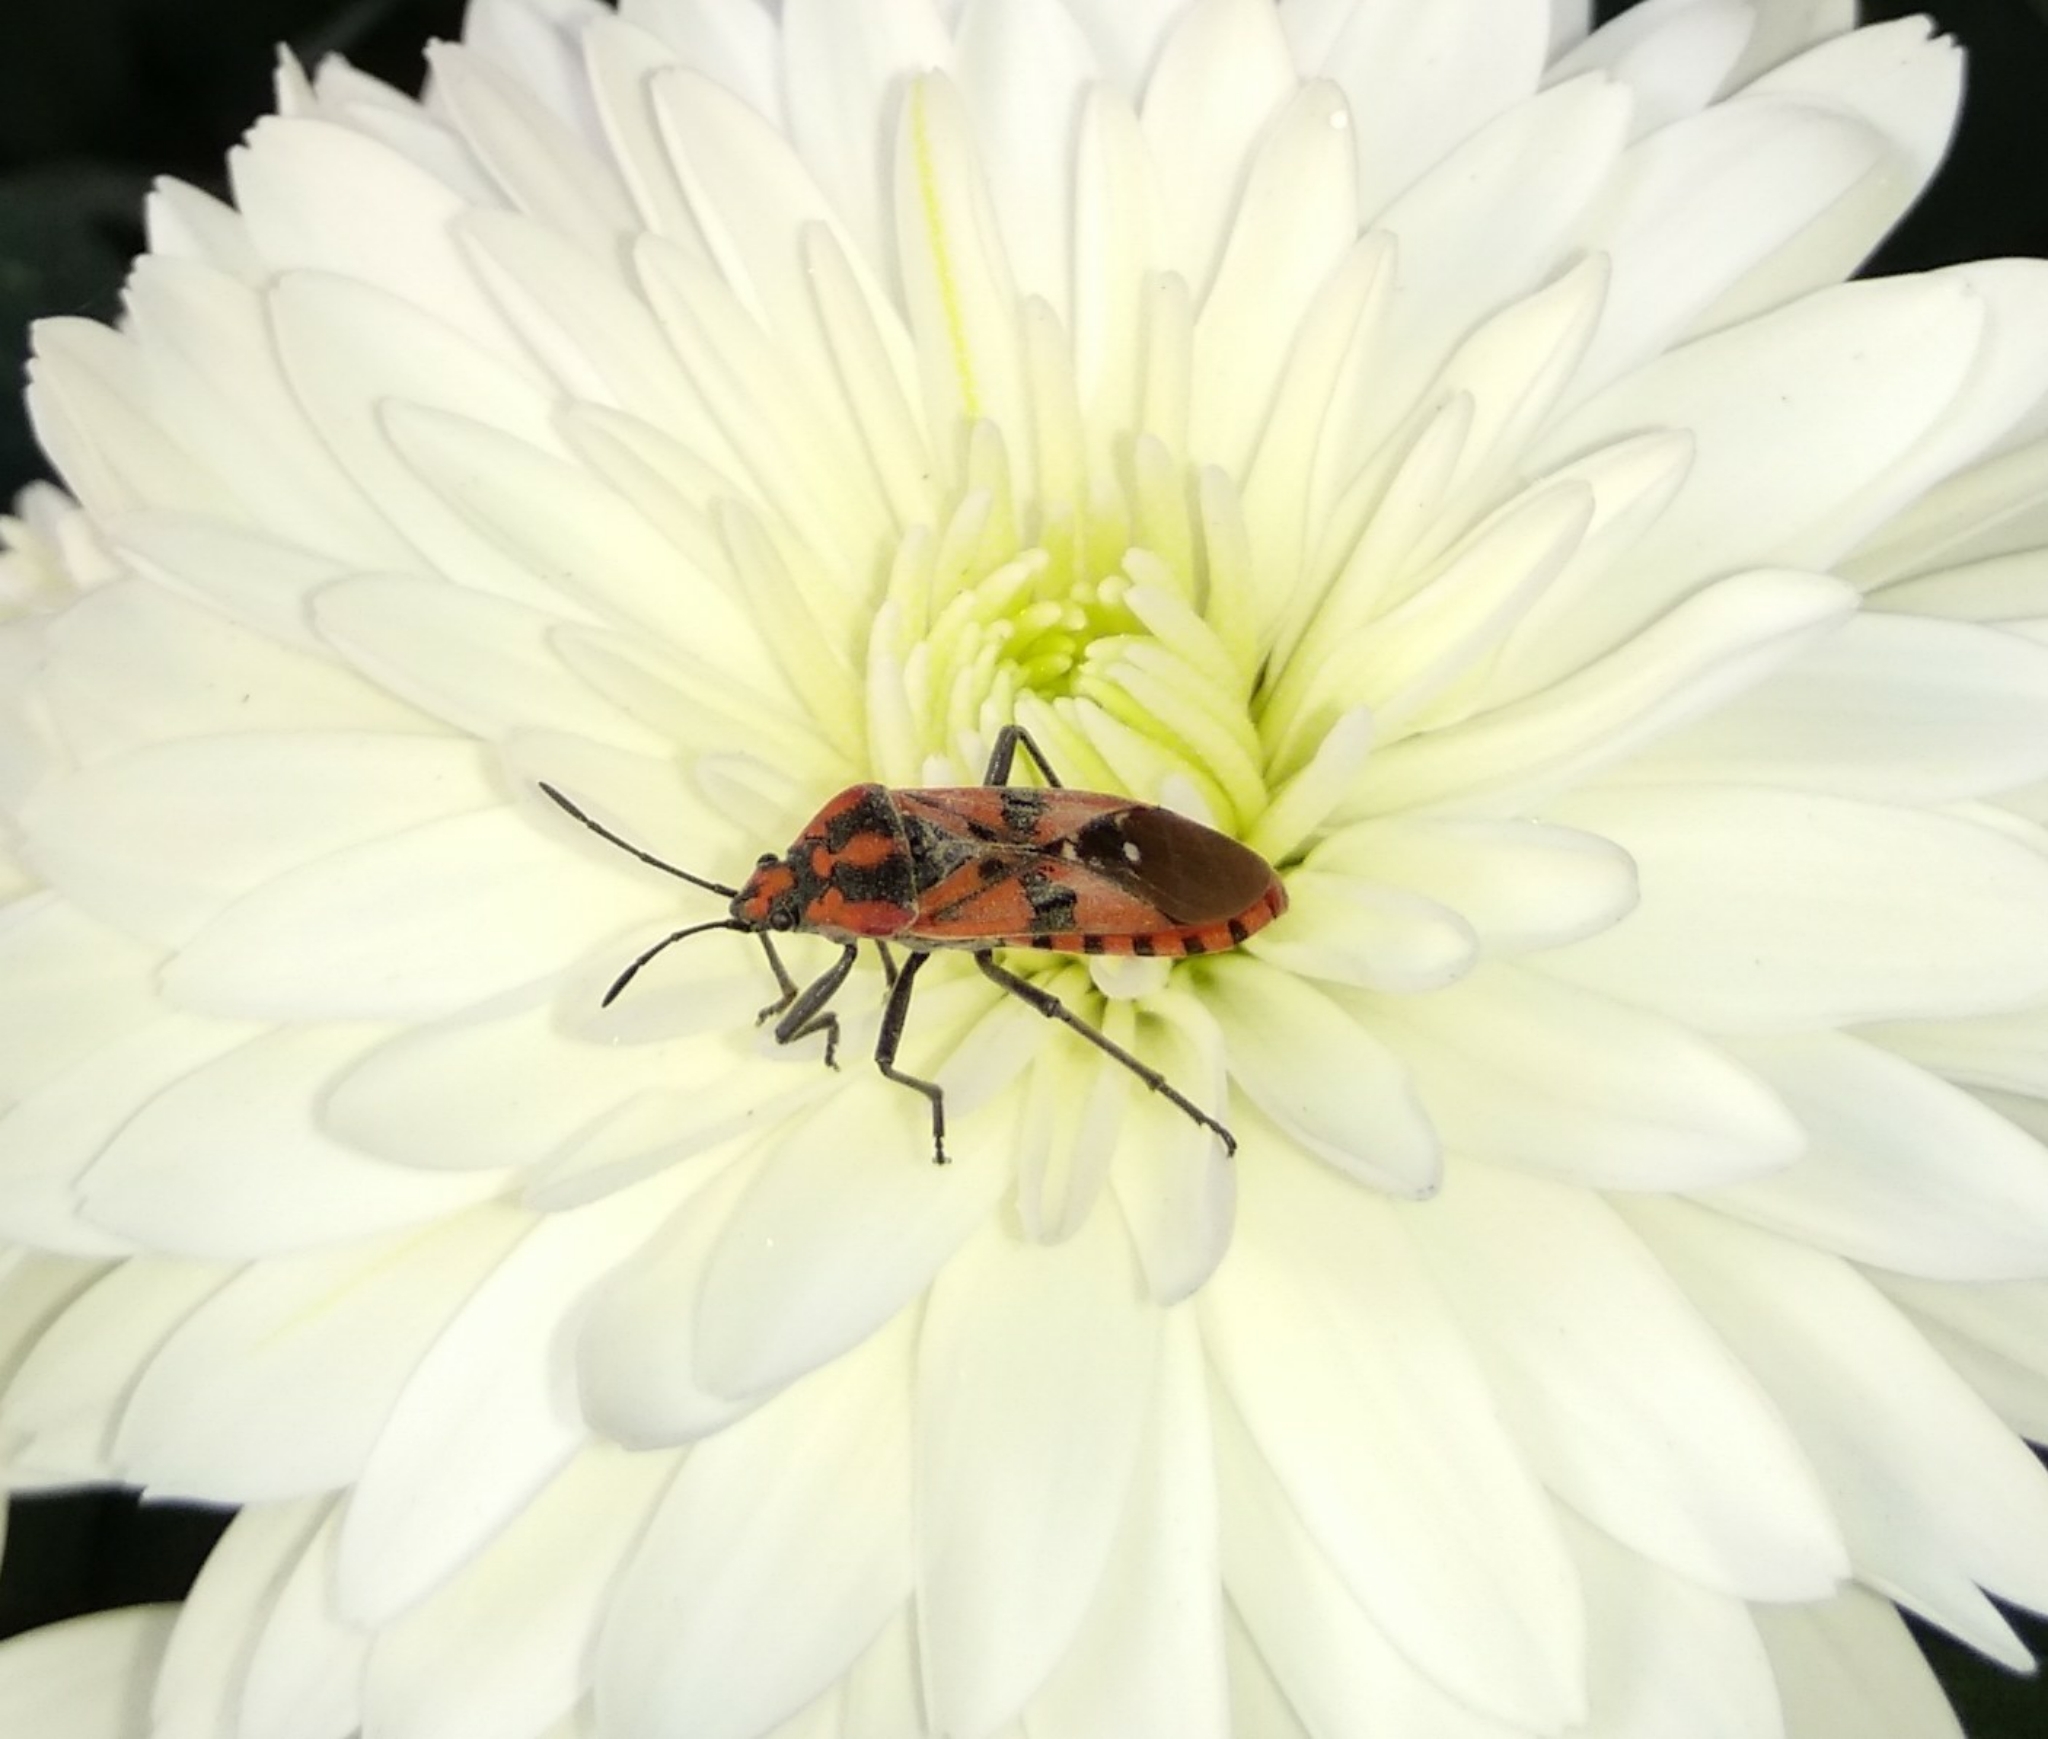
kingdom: Animalia
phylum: Arthropoda
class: Insecta
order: Hemiptera
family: Lygaeidae
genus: Spilostethus
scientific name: Spilostethus pandurus
